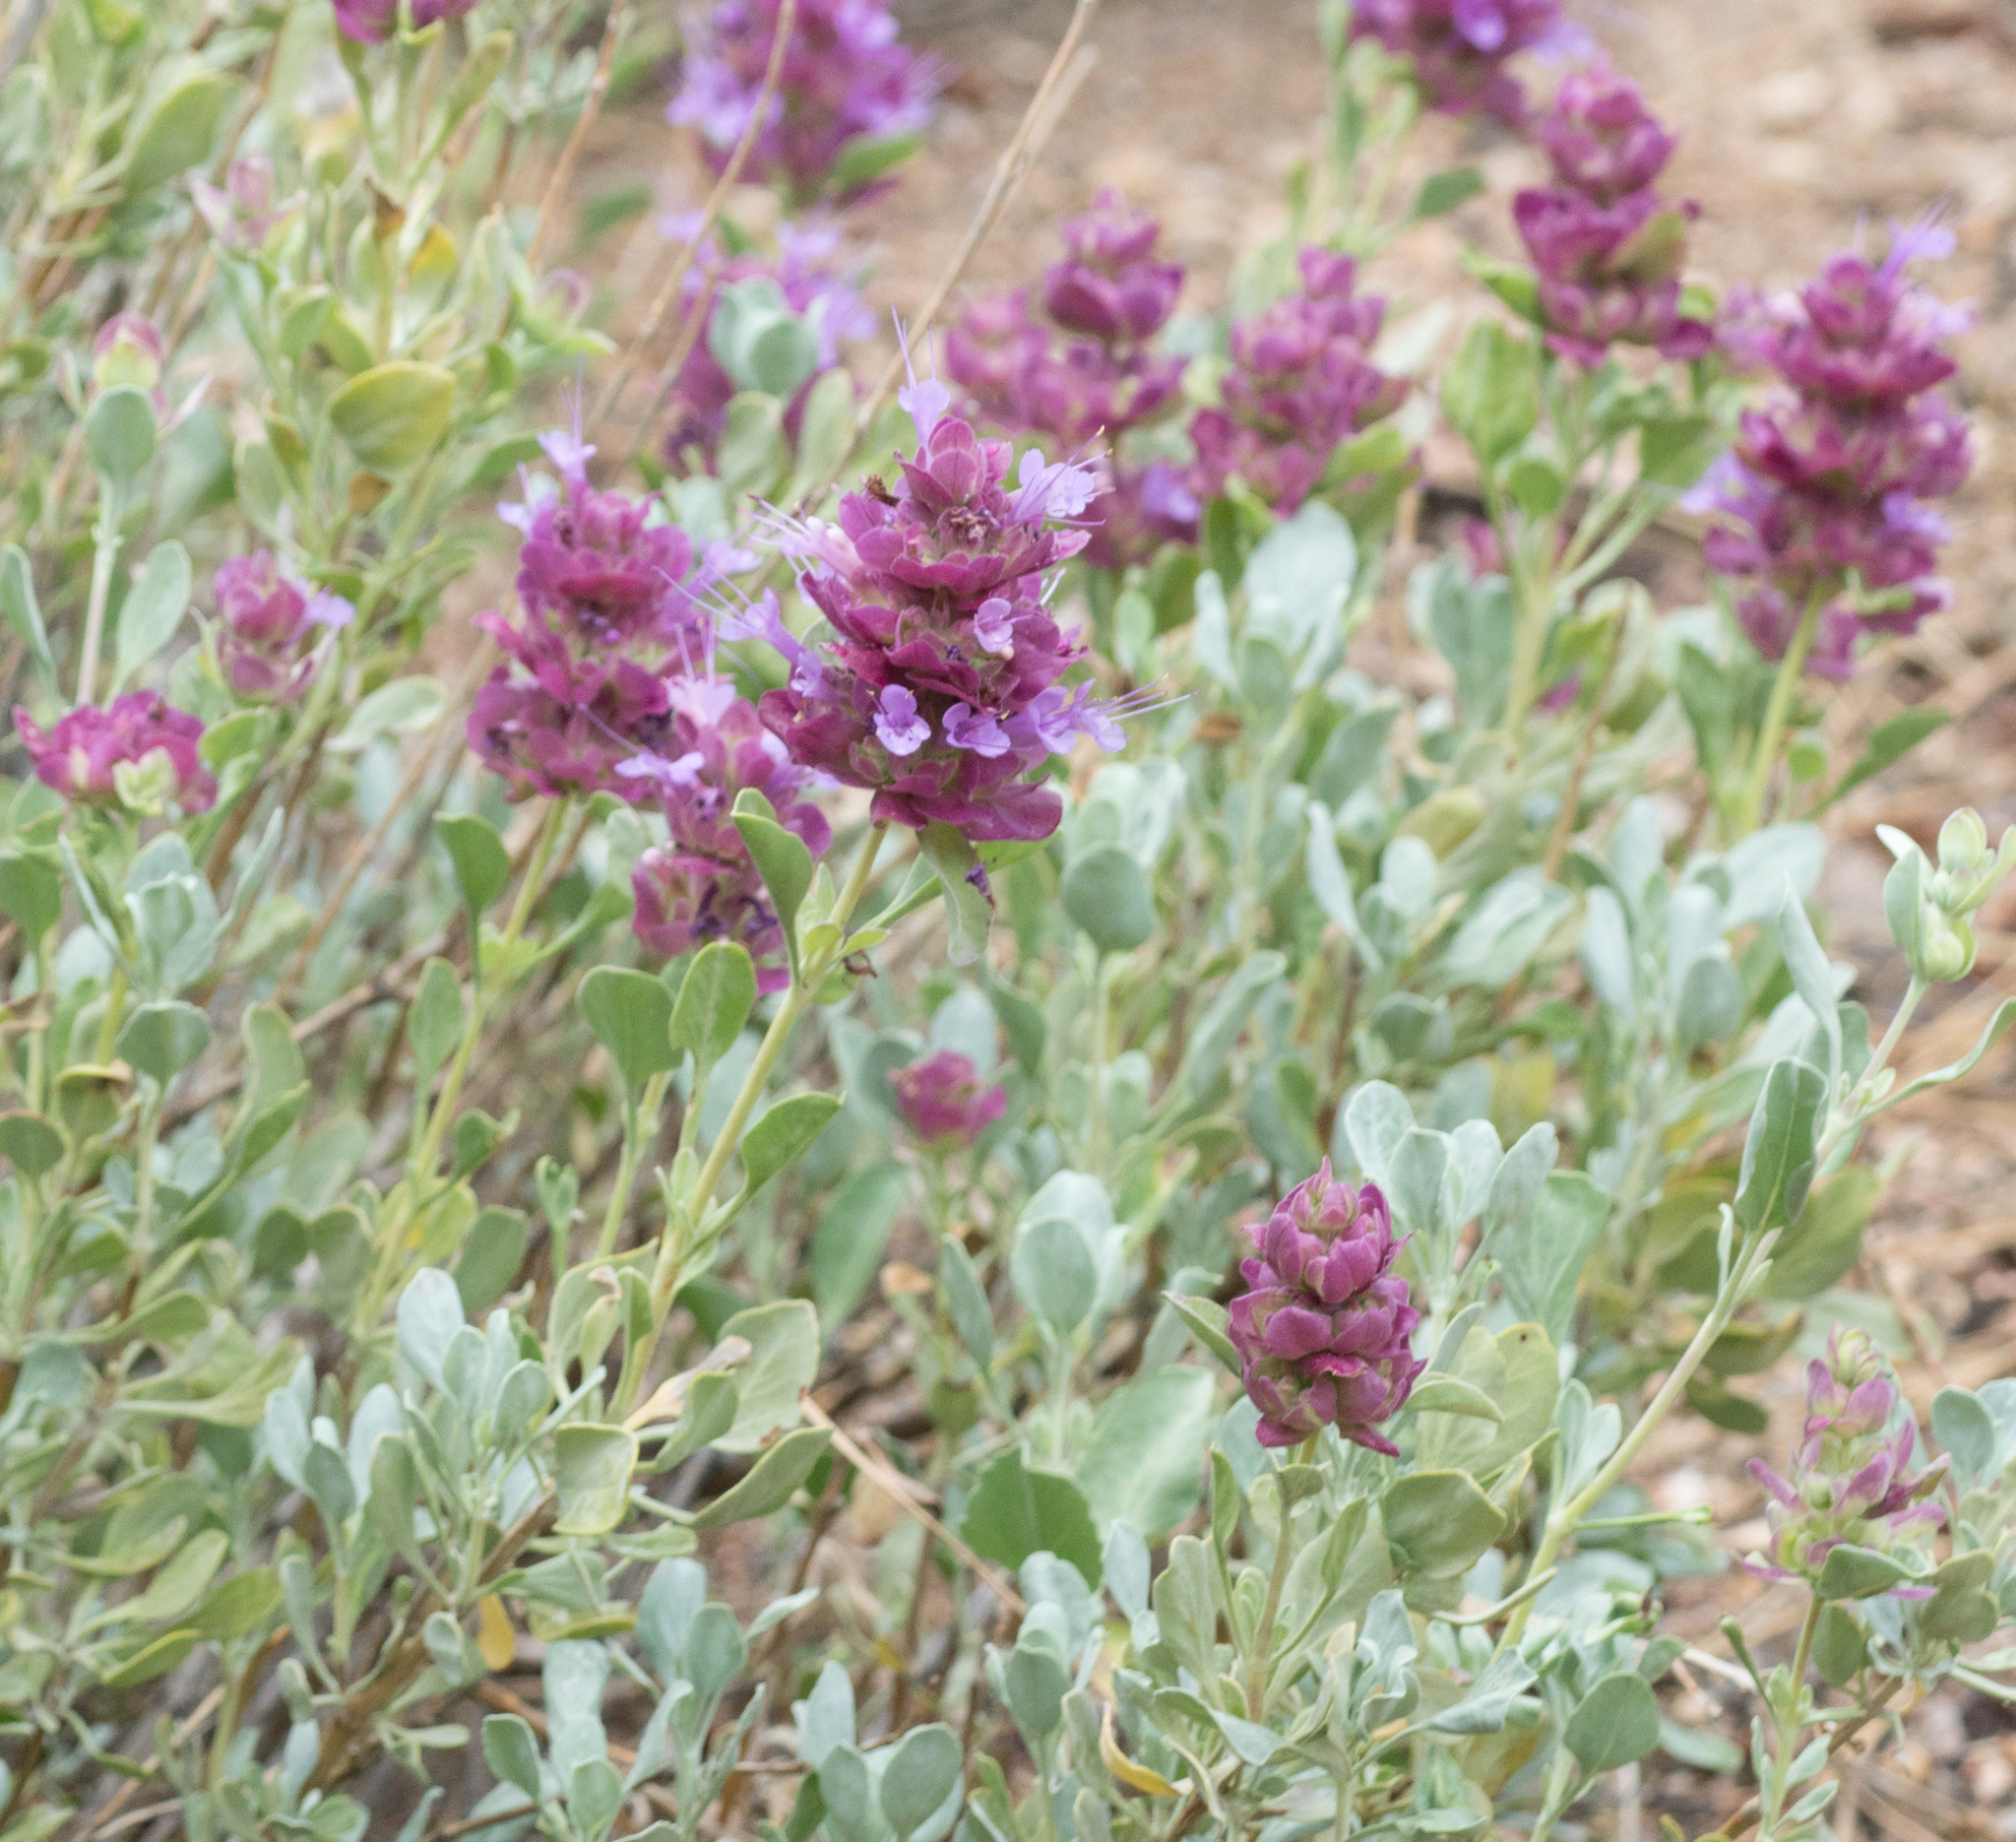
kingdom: Plantae
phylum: Tracheophyta
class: Magnoliopsida
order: Lamiales
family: Lamiaceae
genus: Salvia
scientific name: Salvia pachyphylla
